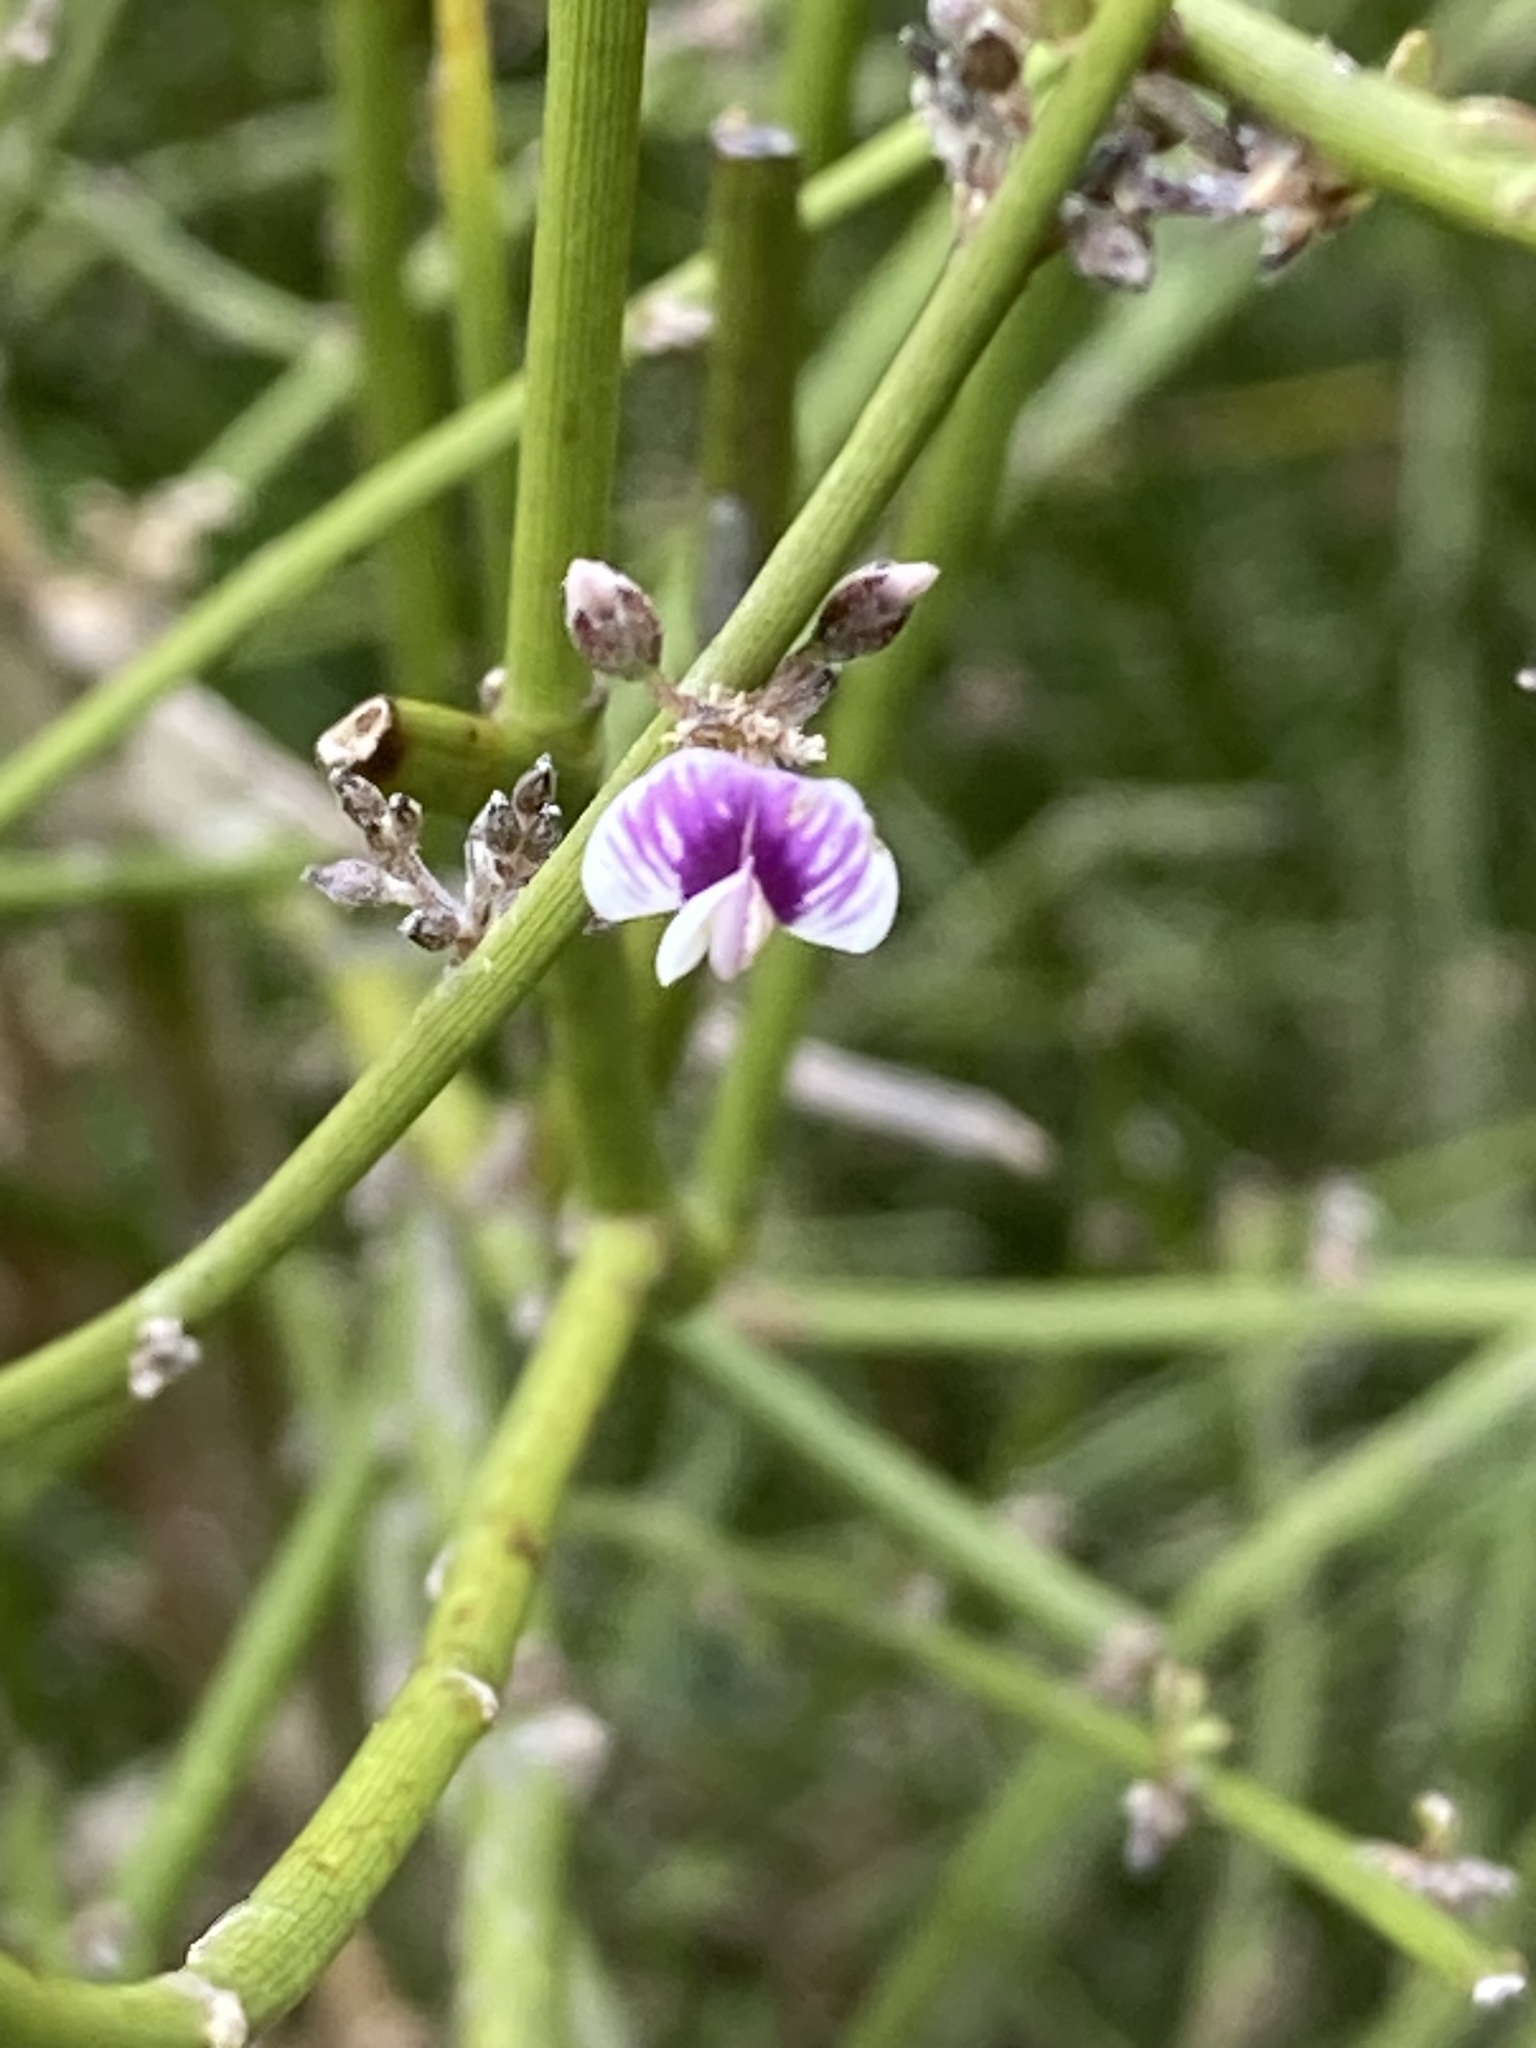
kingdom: Plantae
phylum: Tracheophyta
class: Magnoliopsida
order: Fabales
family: Fabaceae
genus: Carmichaelia
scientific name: Carmichaelia australis
